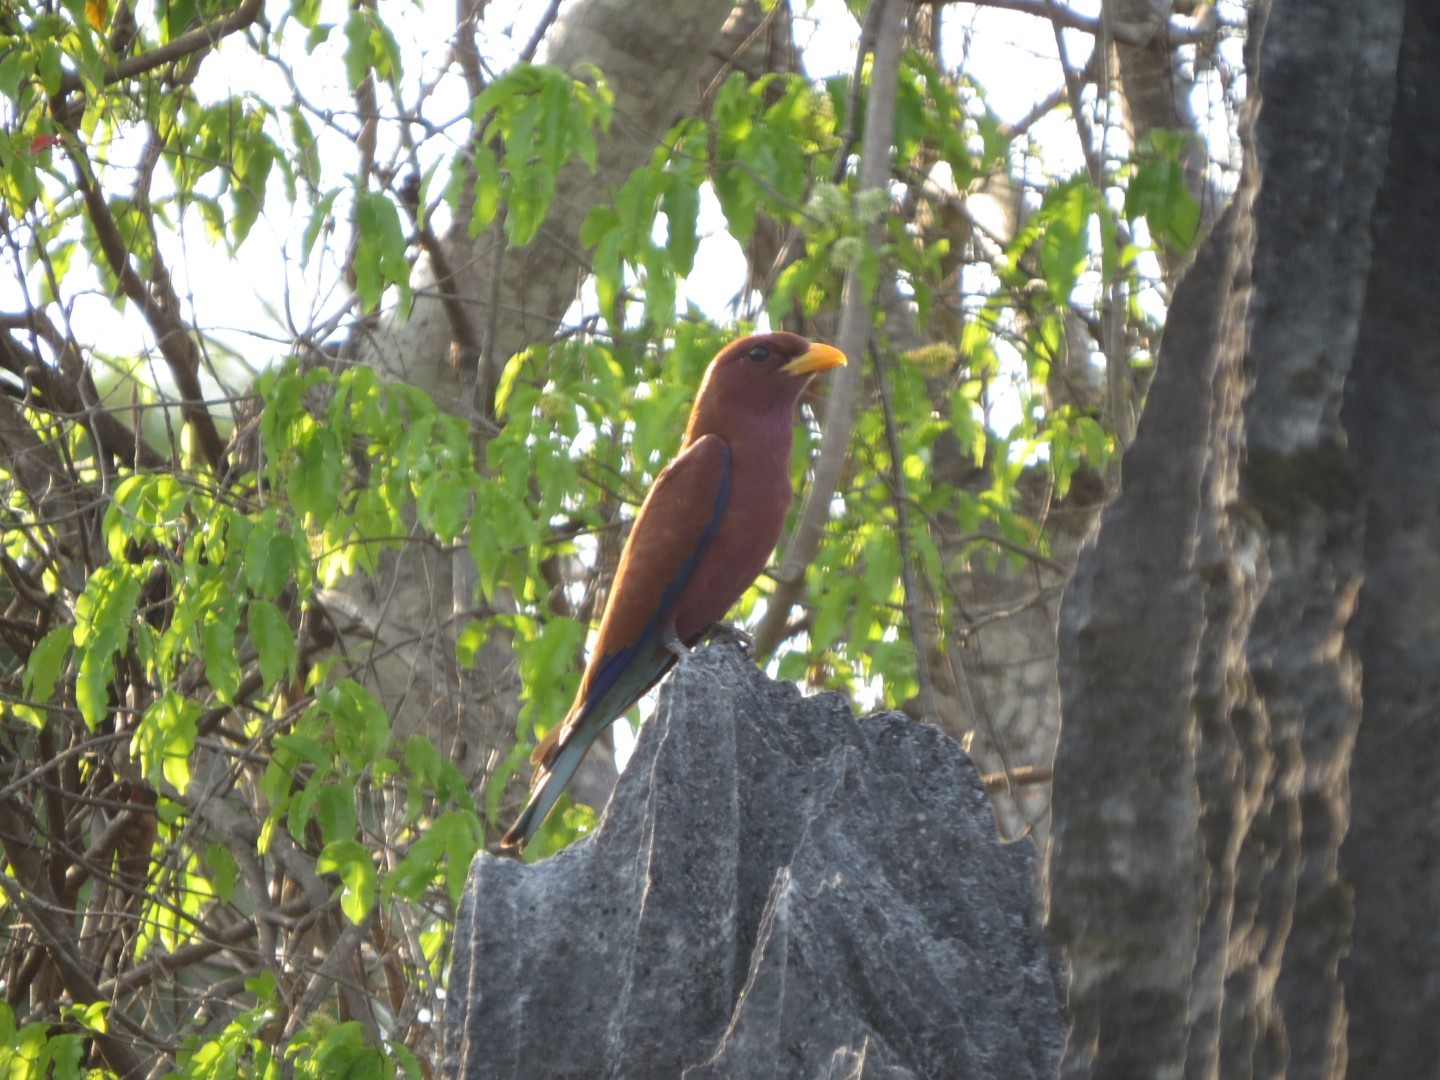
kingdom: Animalia
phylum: Chordata
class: Aves
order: Coraciiformes
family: Coraciidae
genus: Eurystomus
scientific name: Eurystomus glaucurus
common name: Broad-billed roller
